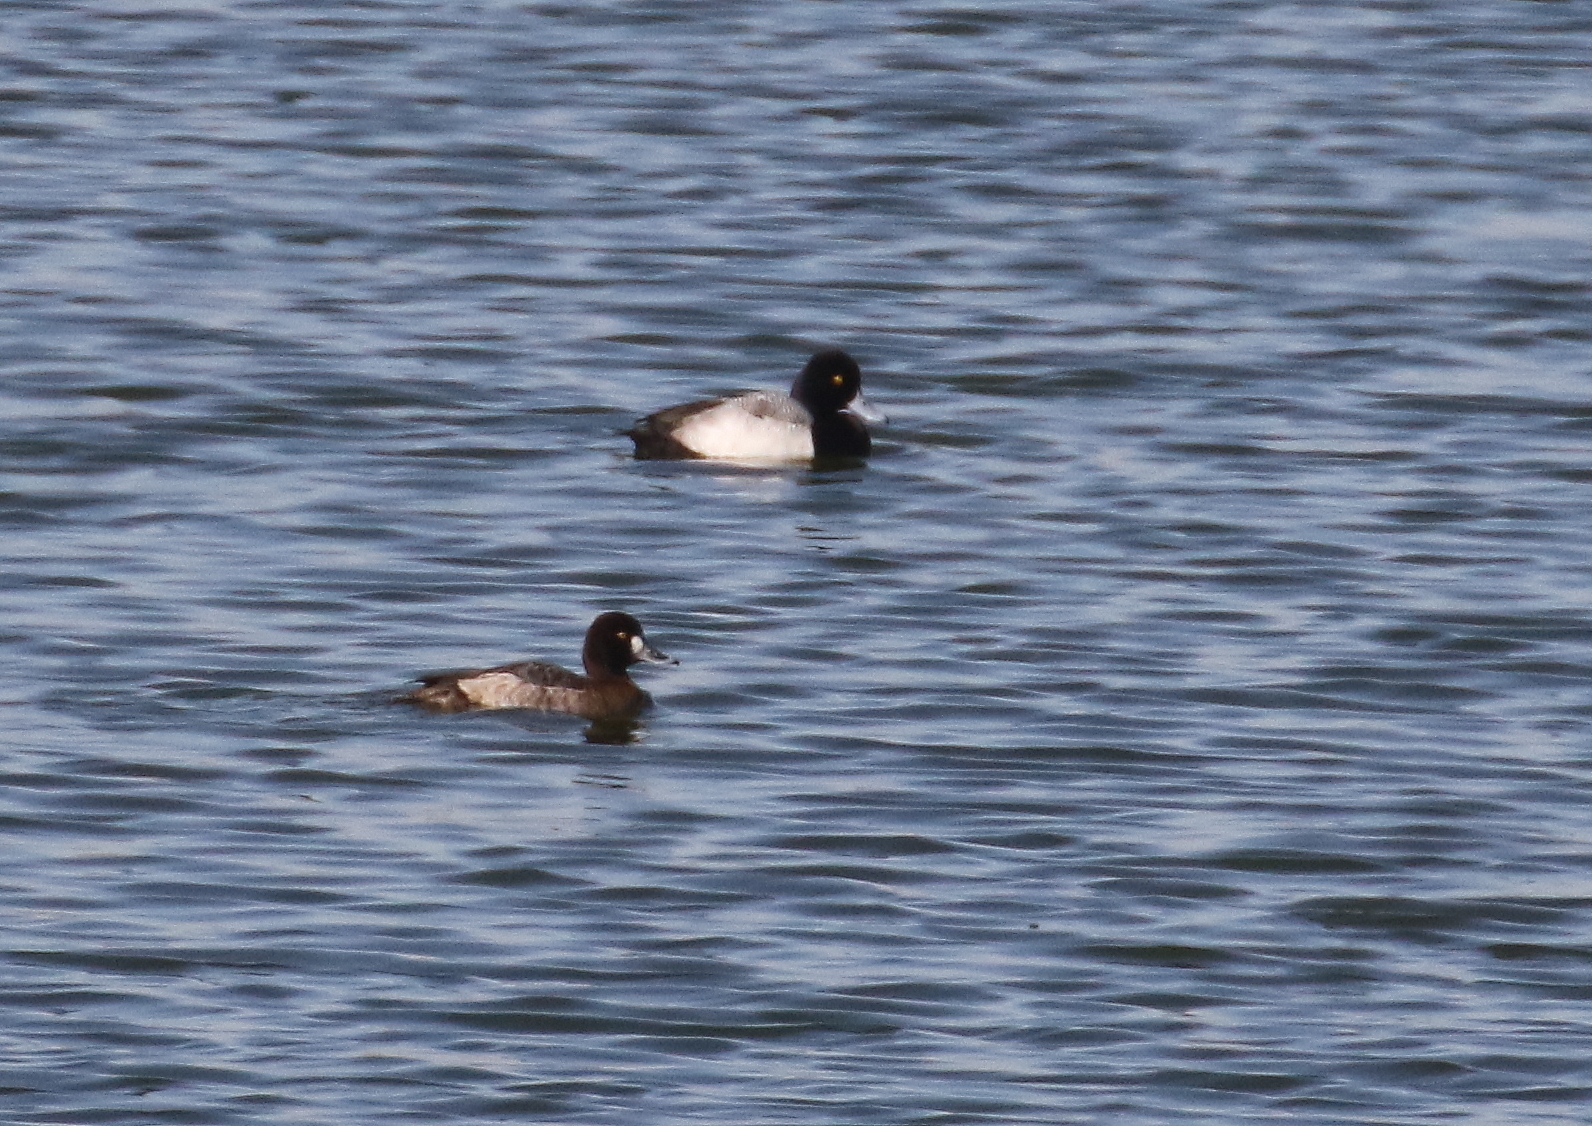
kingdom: Animalia
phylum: Chordata
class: Aves
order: Anseriformes
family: Anatidae
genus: Aythya
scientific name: Aythya affinis
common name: Lesser scaup
